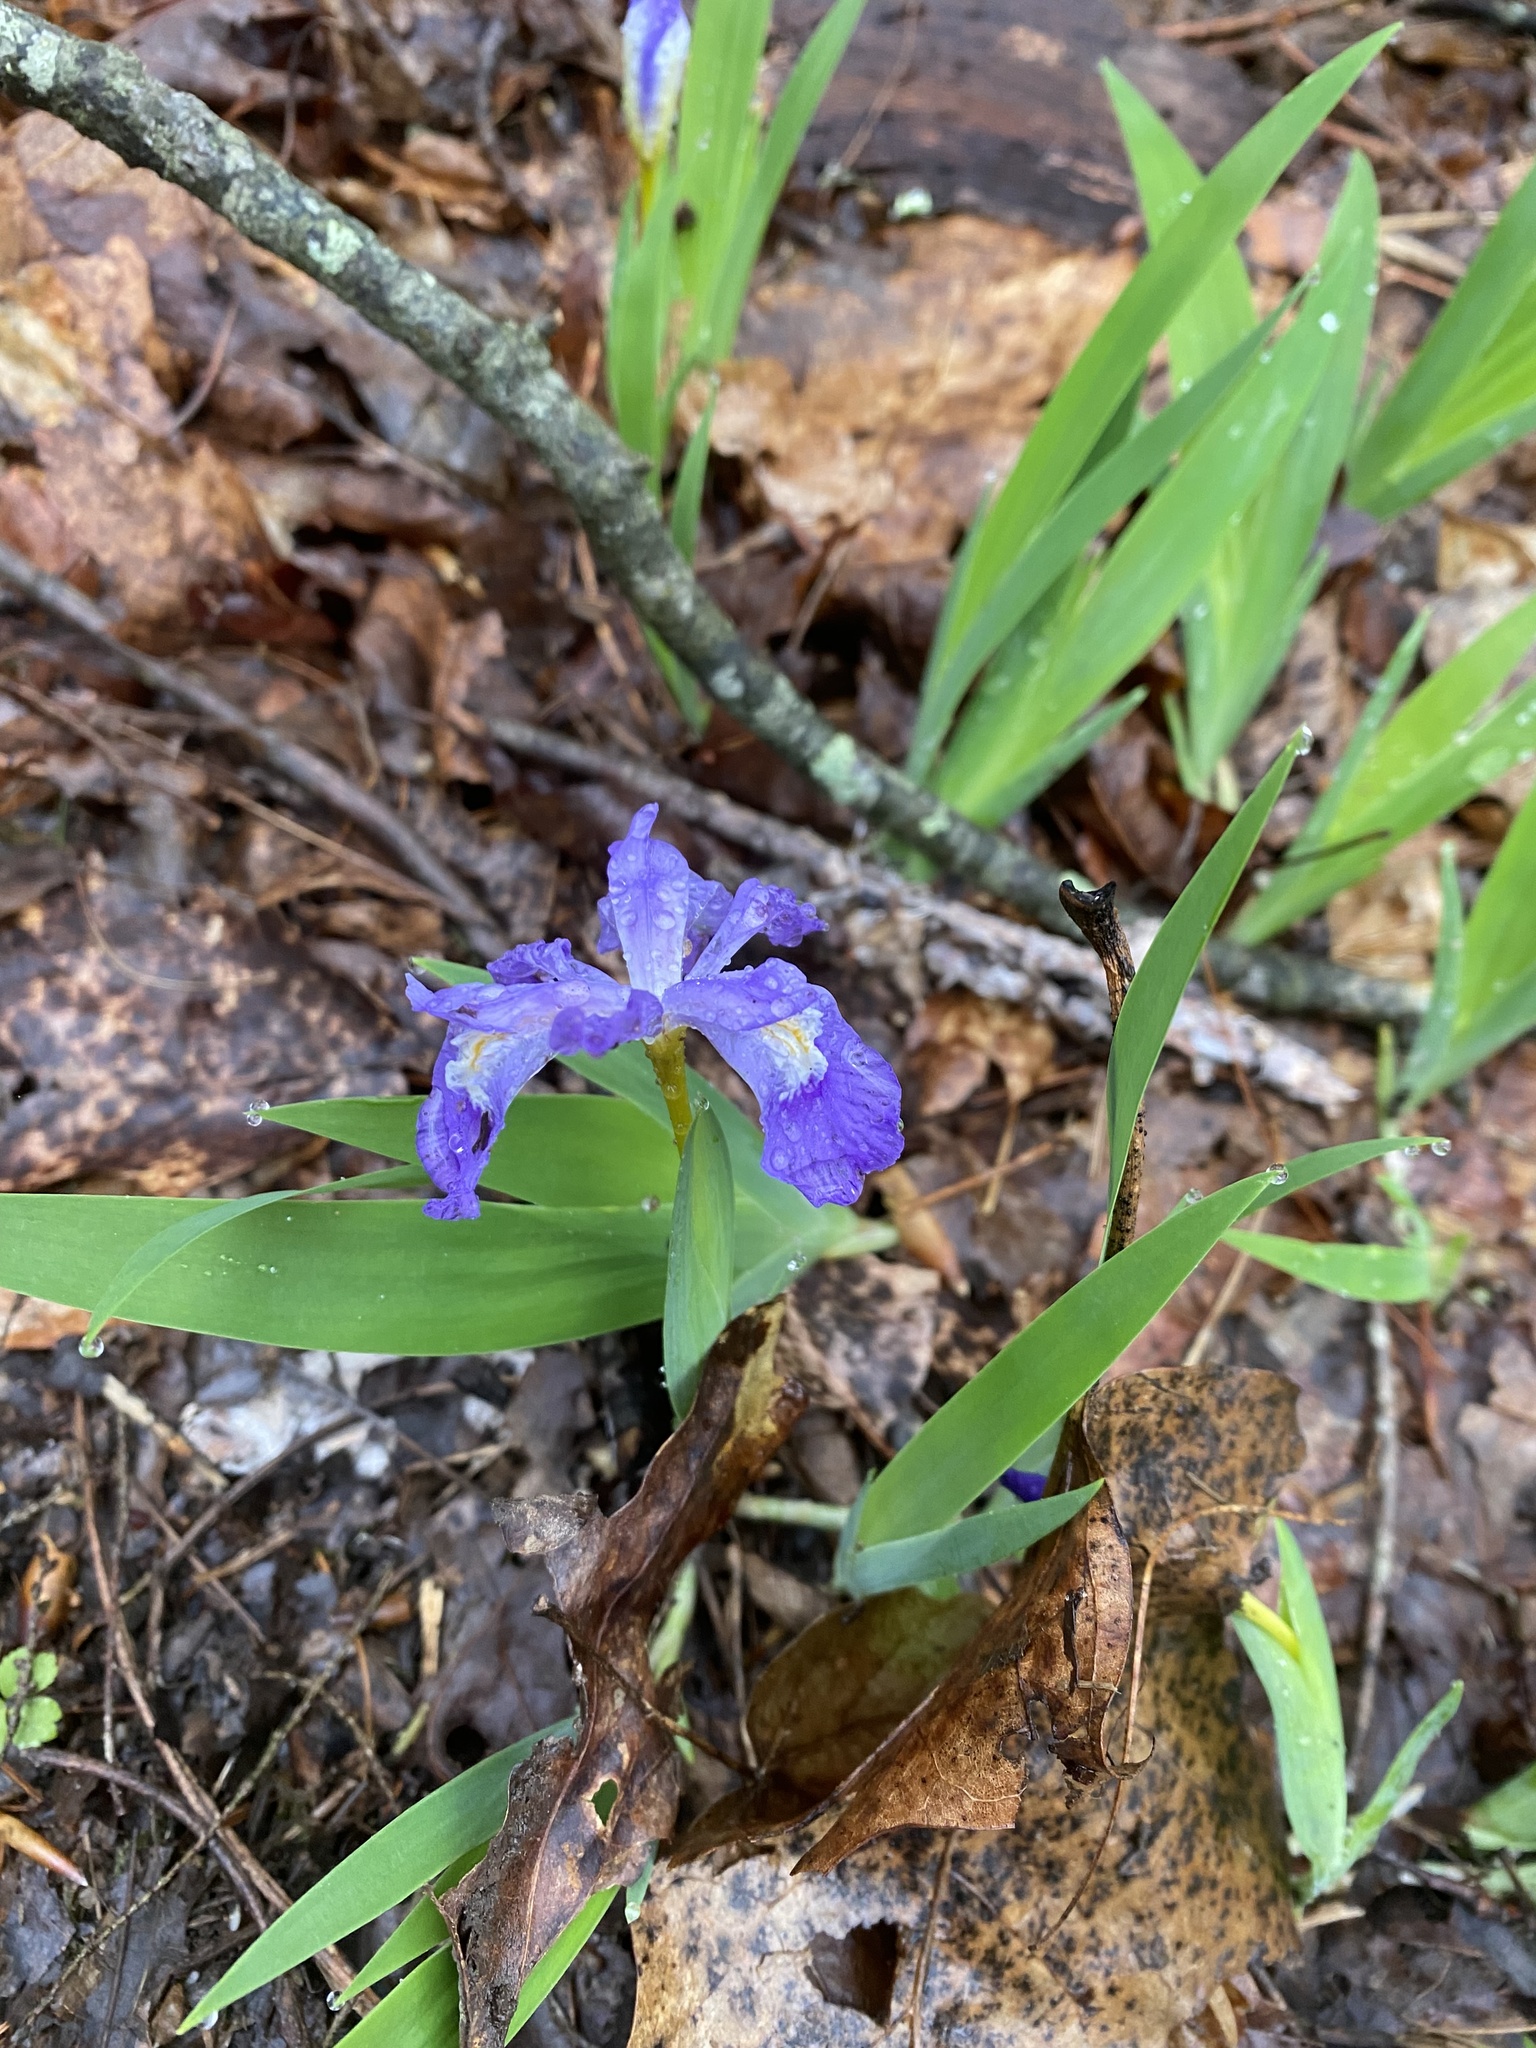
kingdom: Plantae
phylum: Tracheophyta
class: Liliopsida
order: Asparagales
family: Iridaceae
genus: Iris
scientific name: Iris cristata
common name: Crested iris
